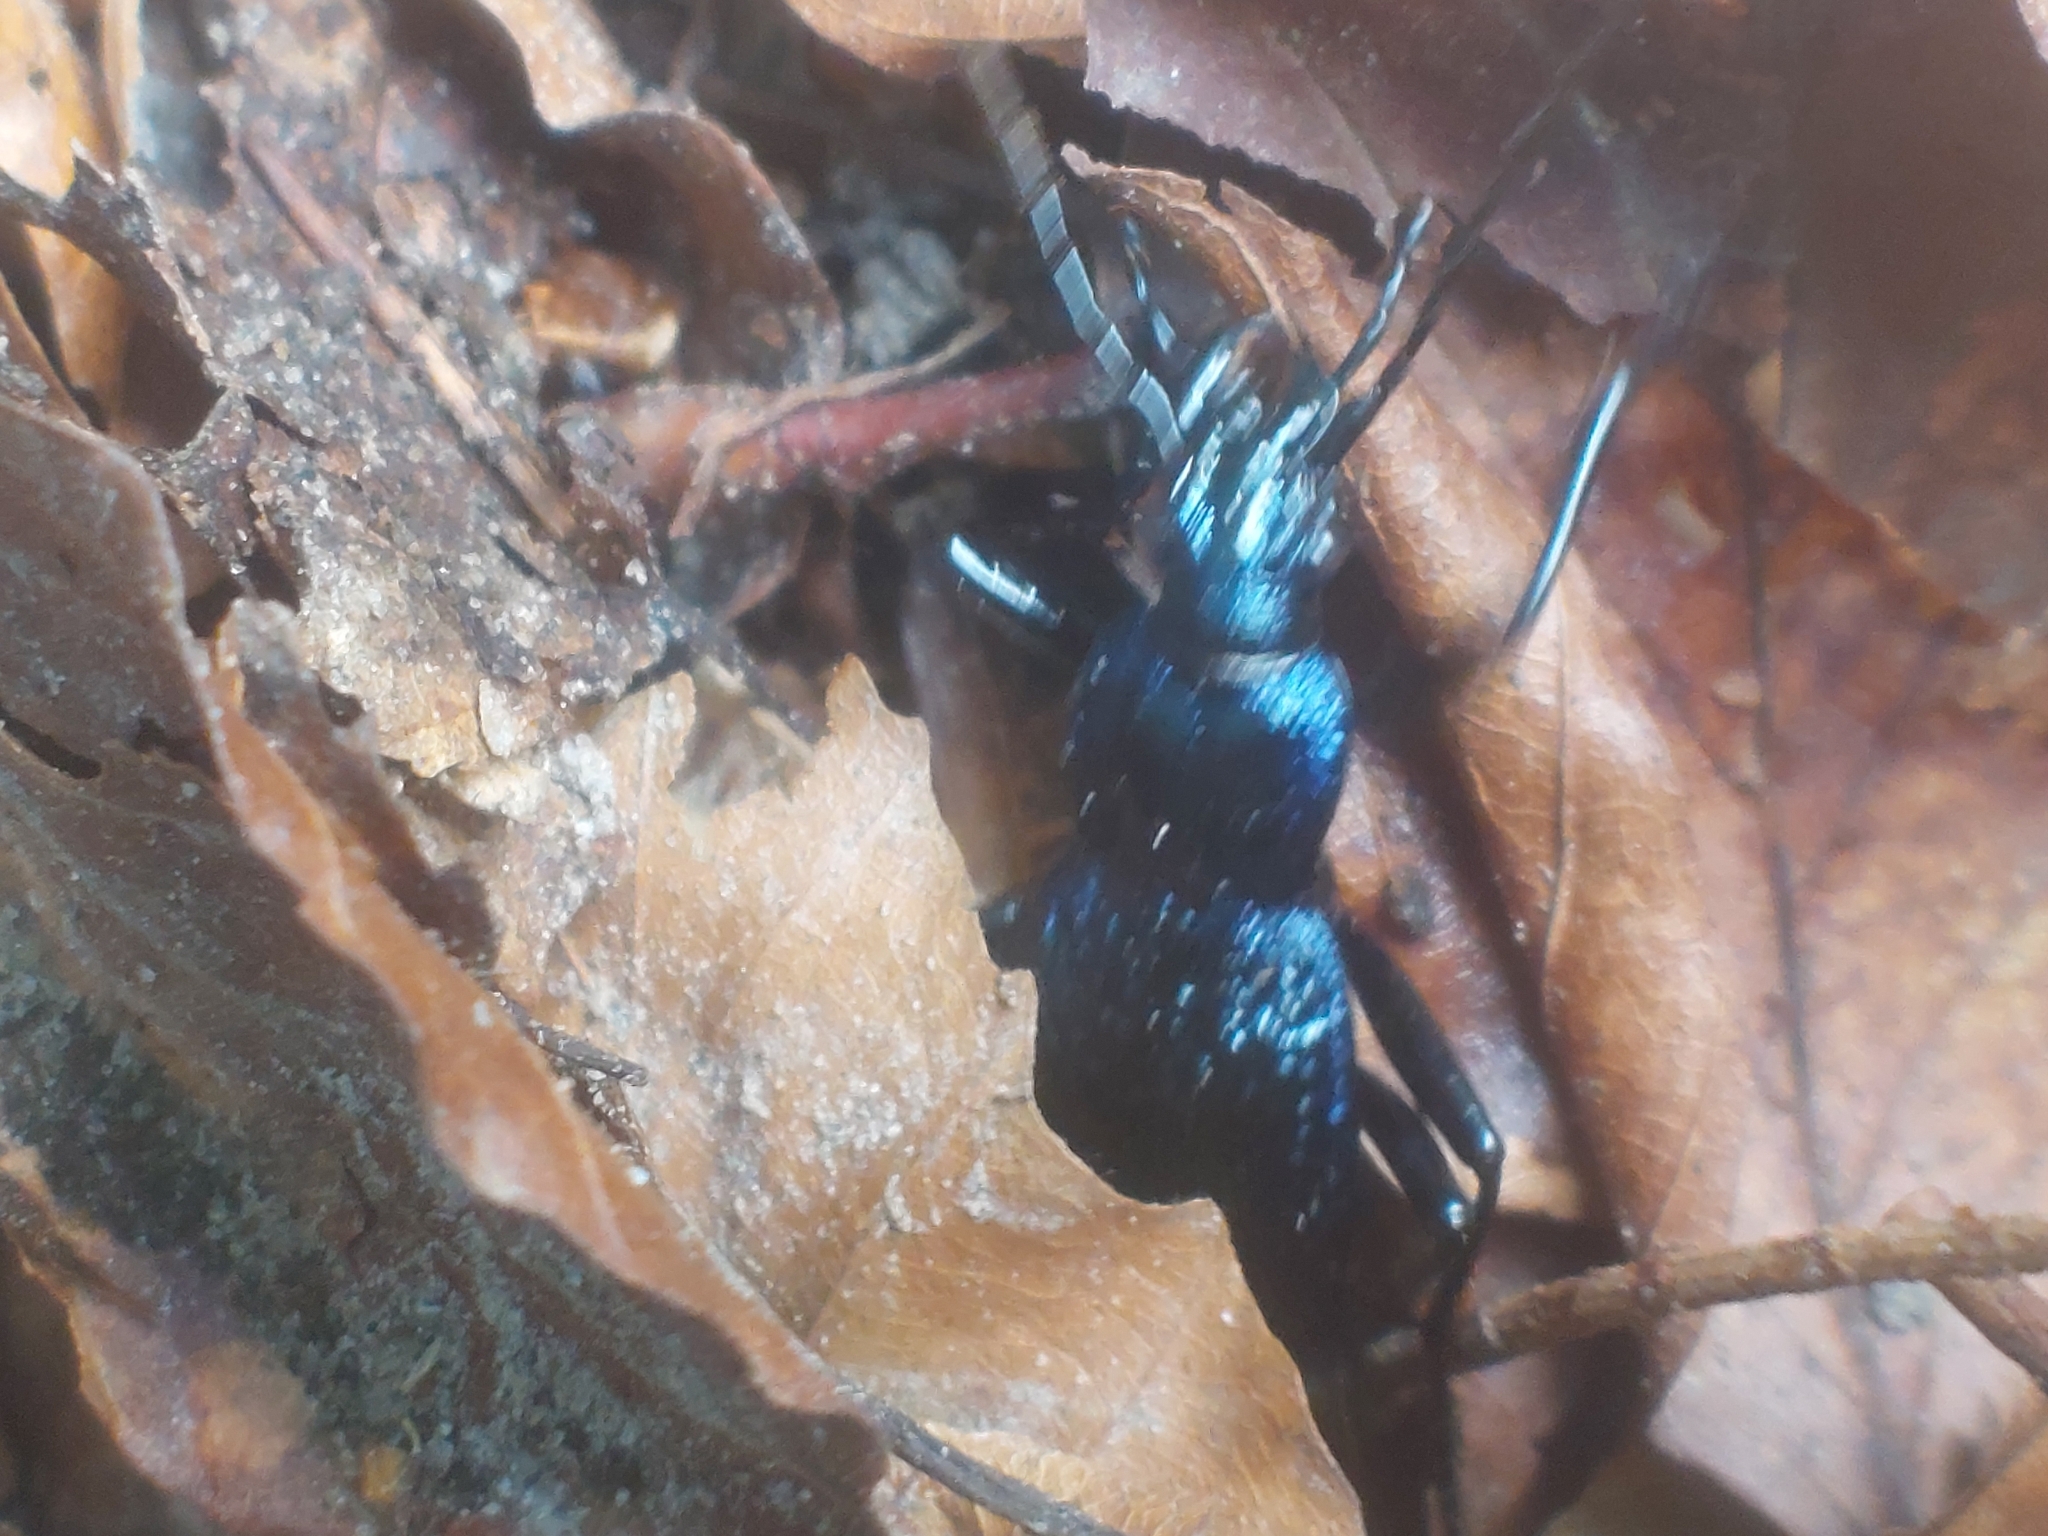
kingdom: Animalia
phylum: Arthropoda
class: Insecta
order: Coleoptera
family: Carabidae
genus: Carabus
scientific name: Carabus intricatus
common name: Blue ground beetle
